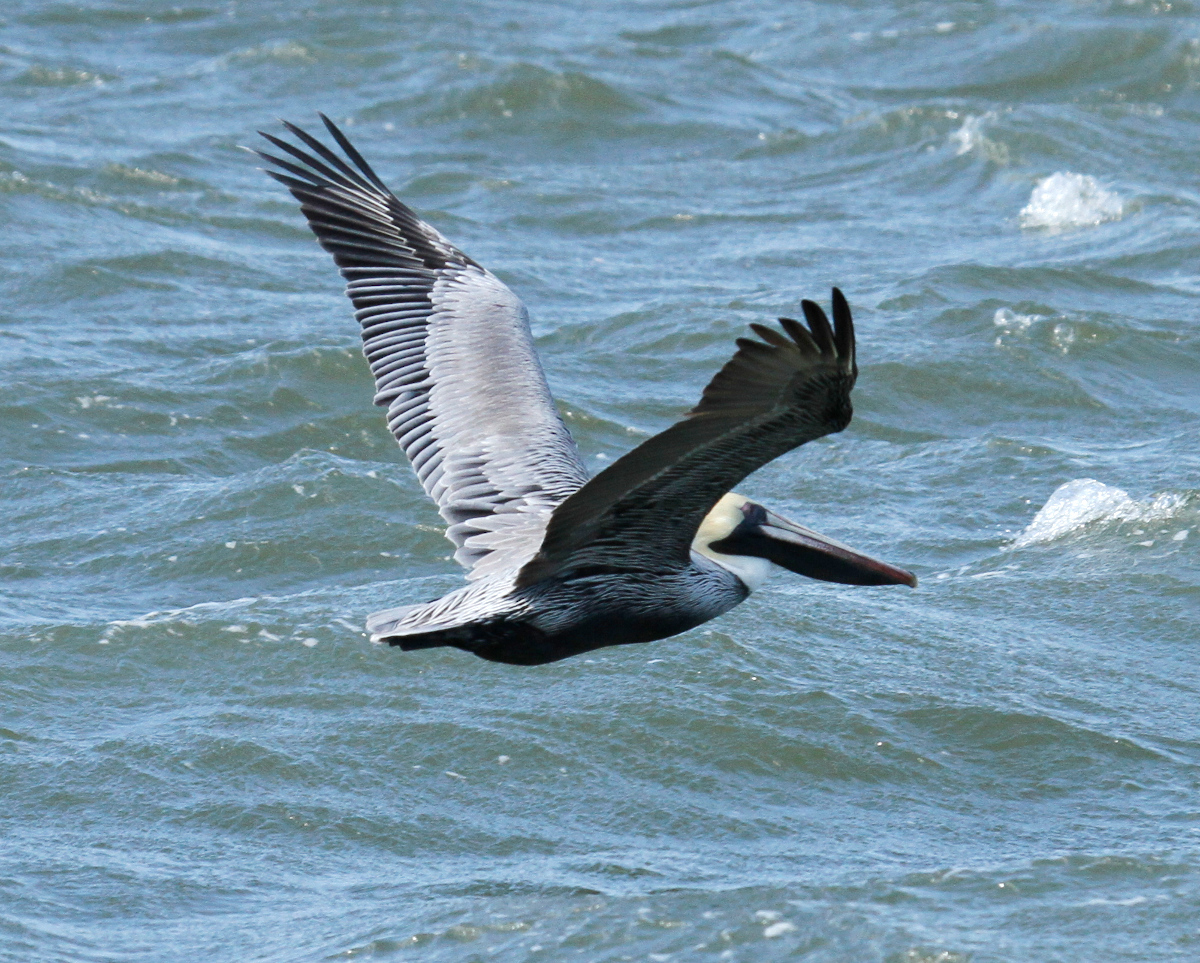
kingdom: Animalia
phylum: Chordata
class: Aves
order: Pelecaniformes
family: Pelecanidae
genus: Pelecanus
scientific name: Pelecanus occidentalis
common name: Brown pelican
